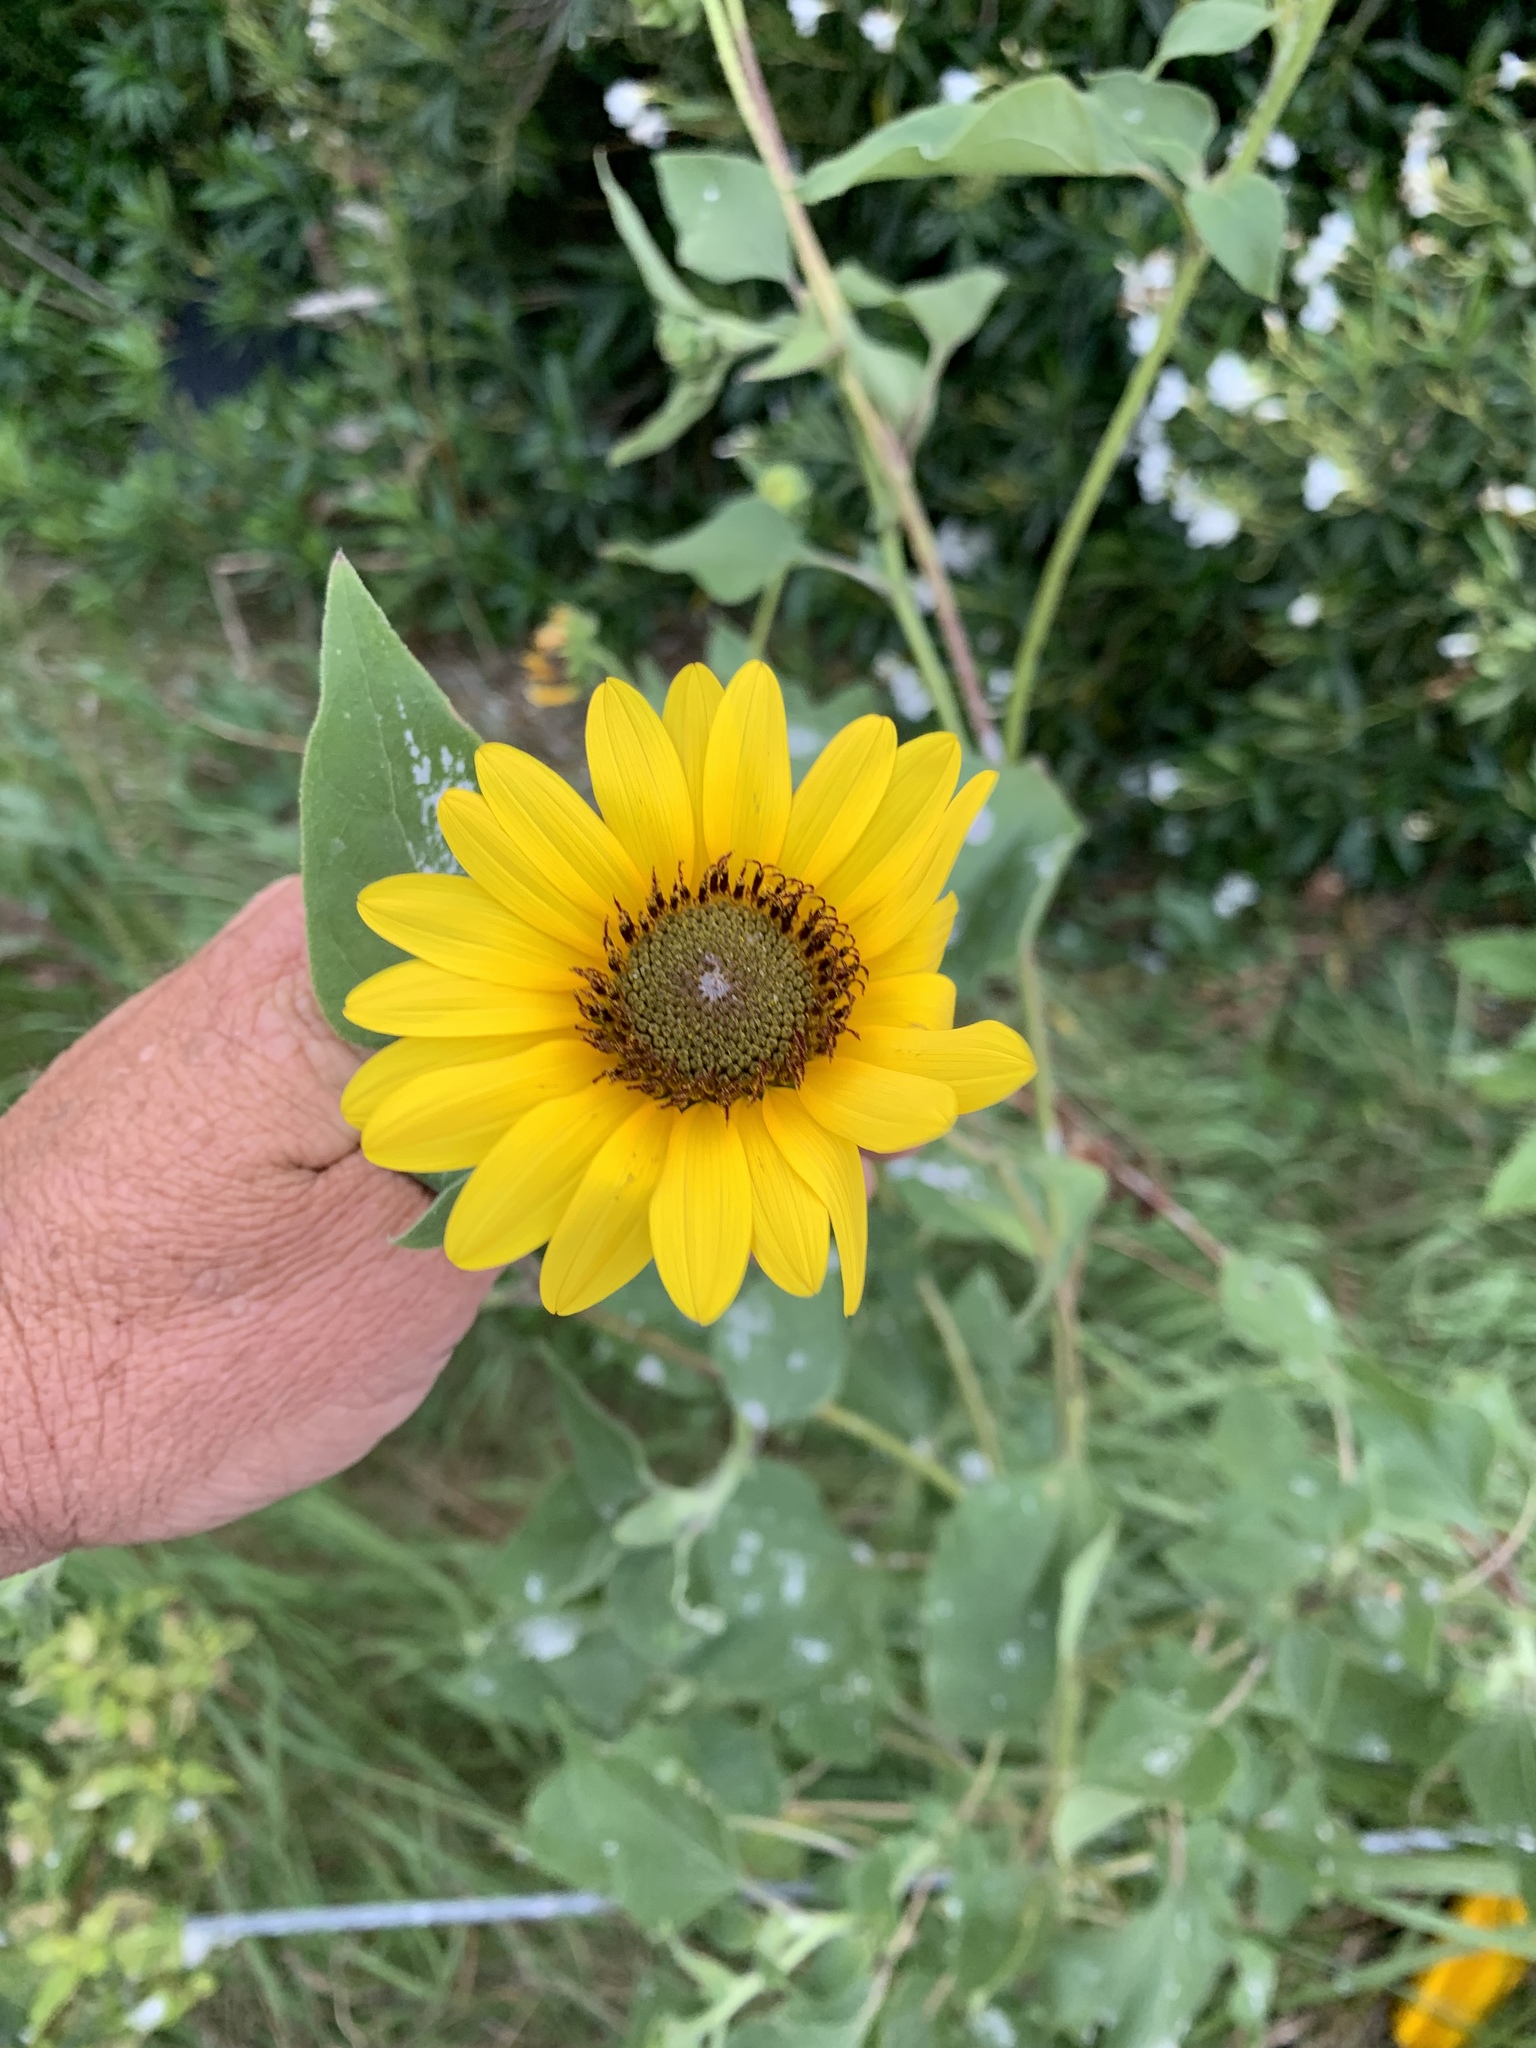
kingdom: Plantae
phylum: Tracheophyta
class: Magnoliopsida
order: Asterales
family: Asteraceae
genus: Helianthus
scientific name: Helianthus annuus
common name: Sunflower
